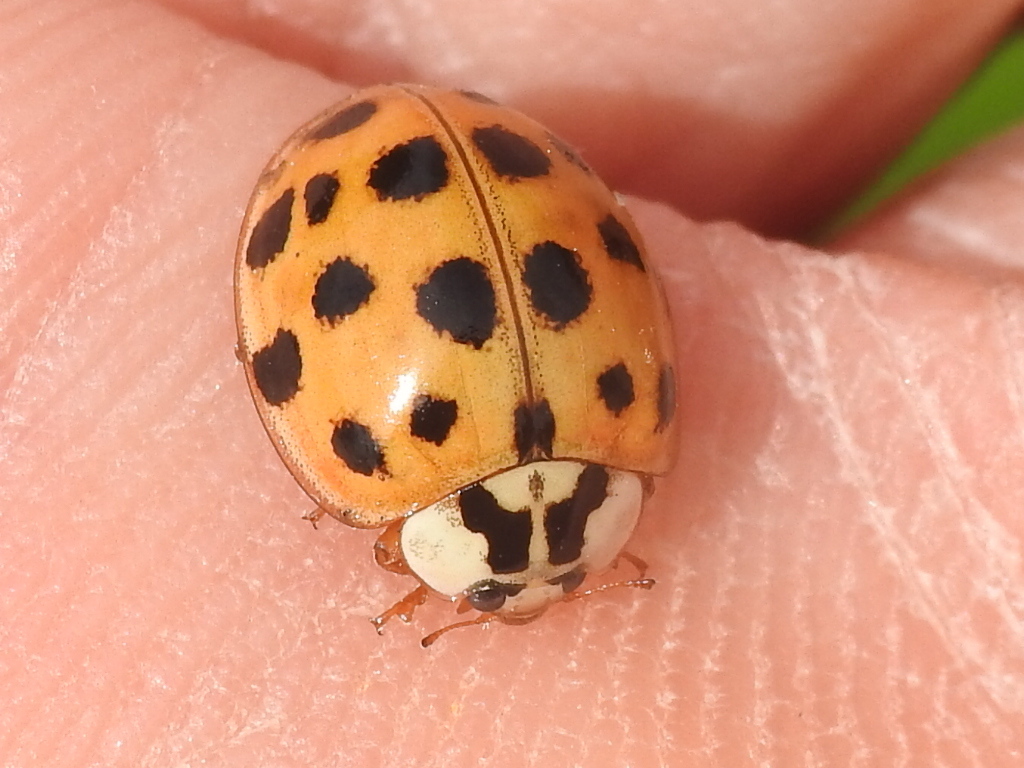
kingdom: Animalia
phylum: Arthropoda
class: Insecta
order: Coleoptera
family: Coccinellidae
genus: Harmonia
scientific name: Harmonia axyridis
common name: Harlequin ladybird
